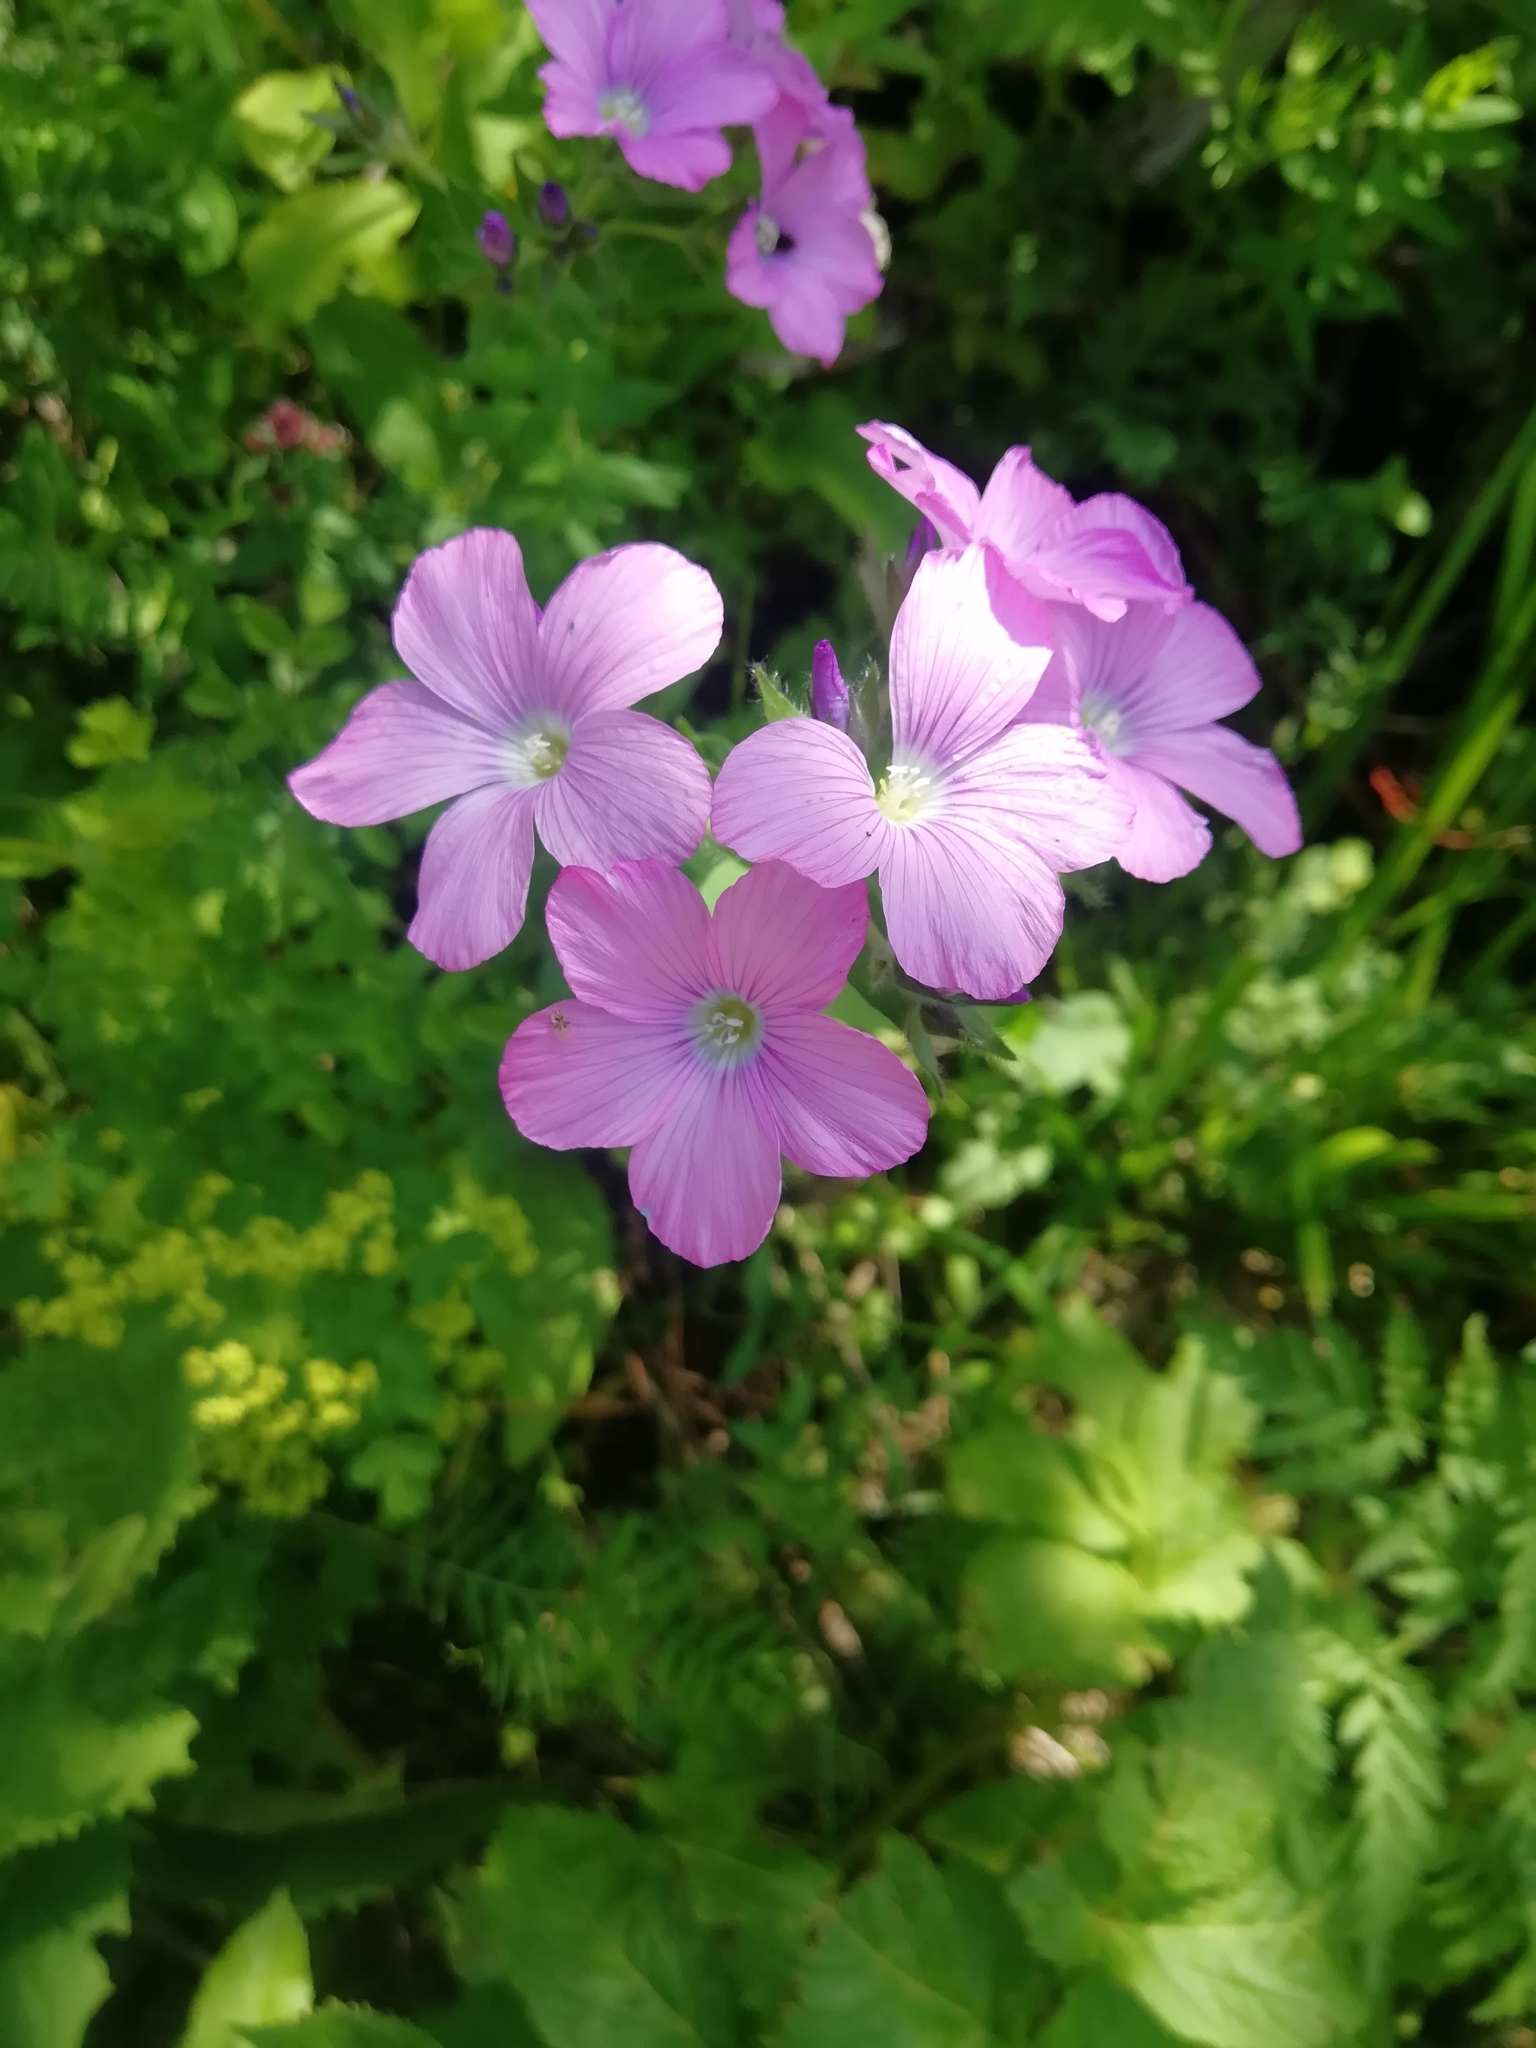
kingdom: Plantae
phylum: Tracheophyta
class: Magnoliopsida
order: Malpighiales
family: Linaceae
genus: Linum
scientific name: Linum hypericifolium
